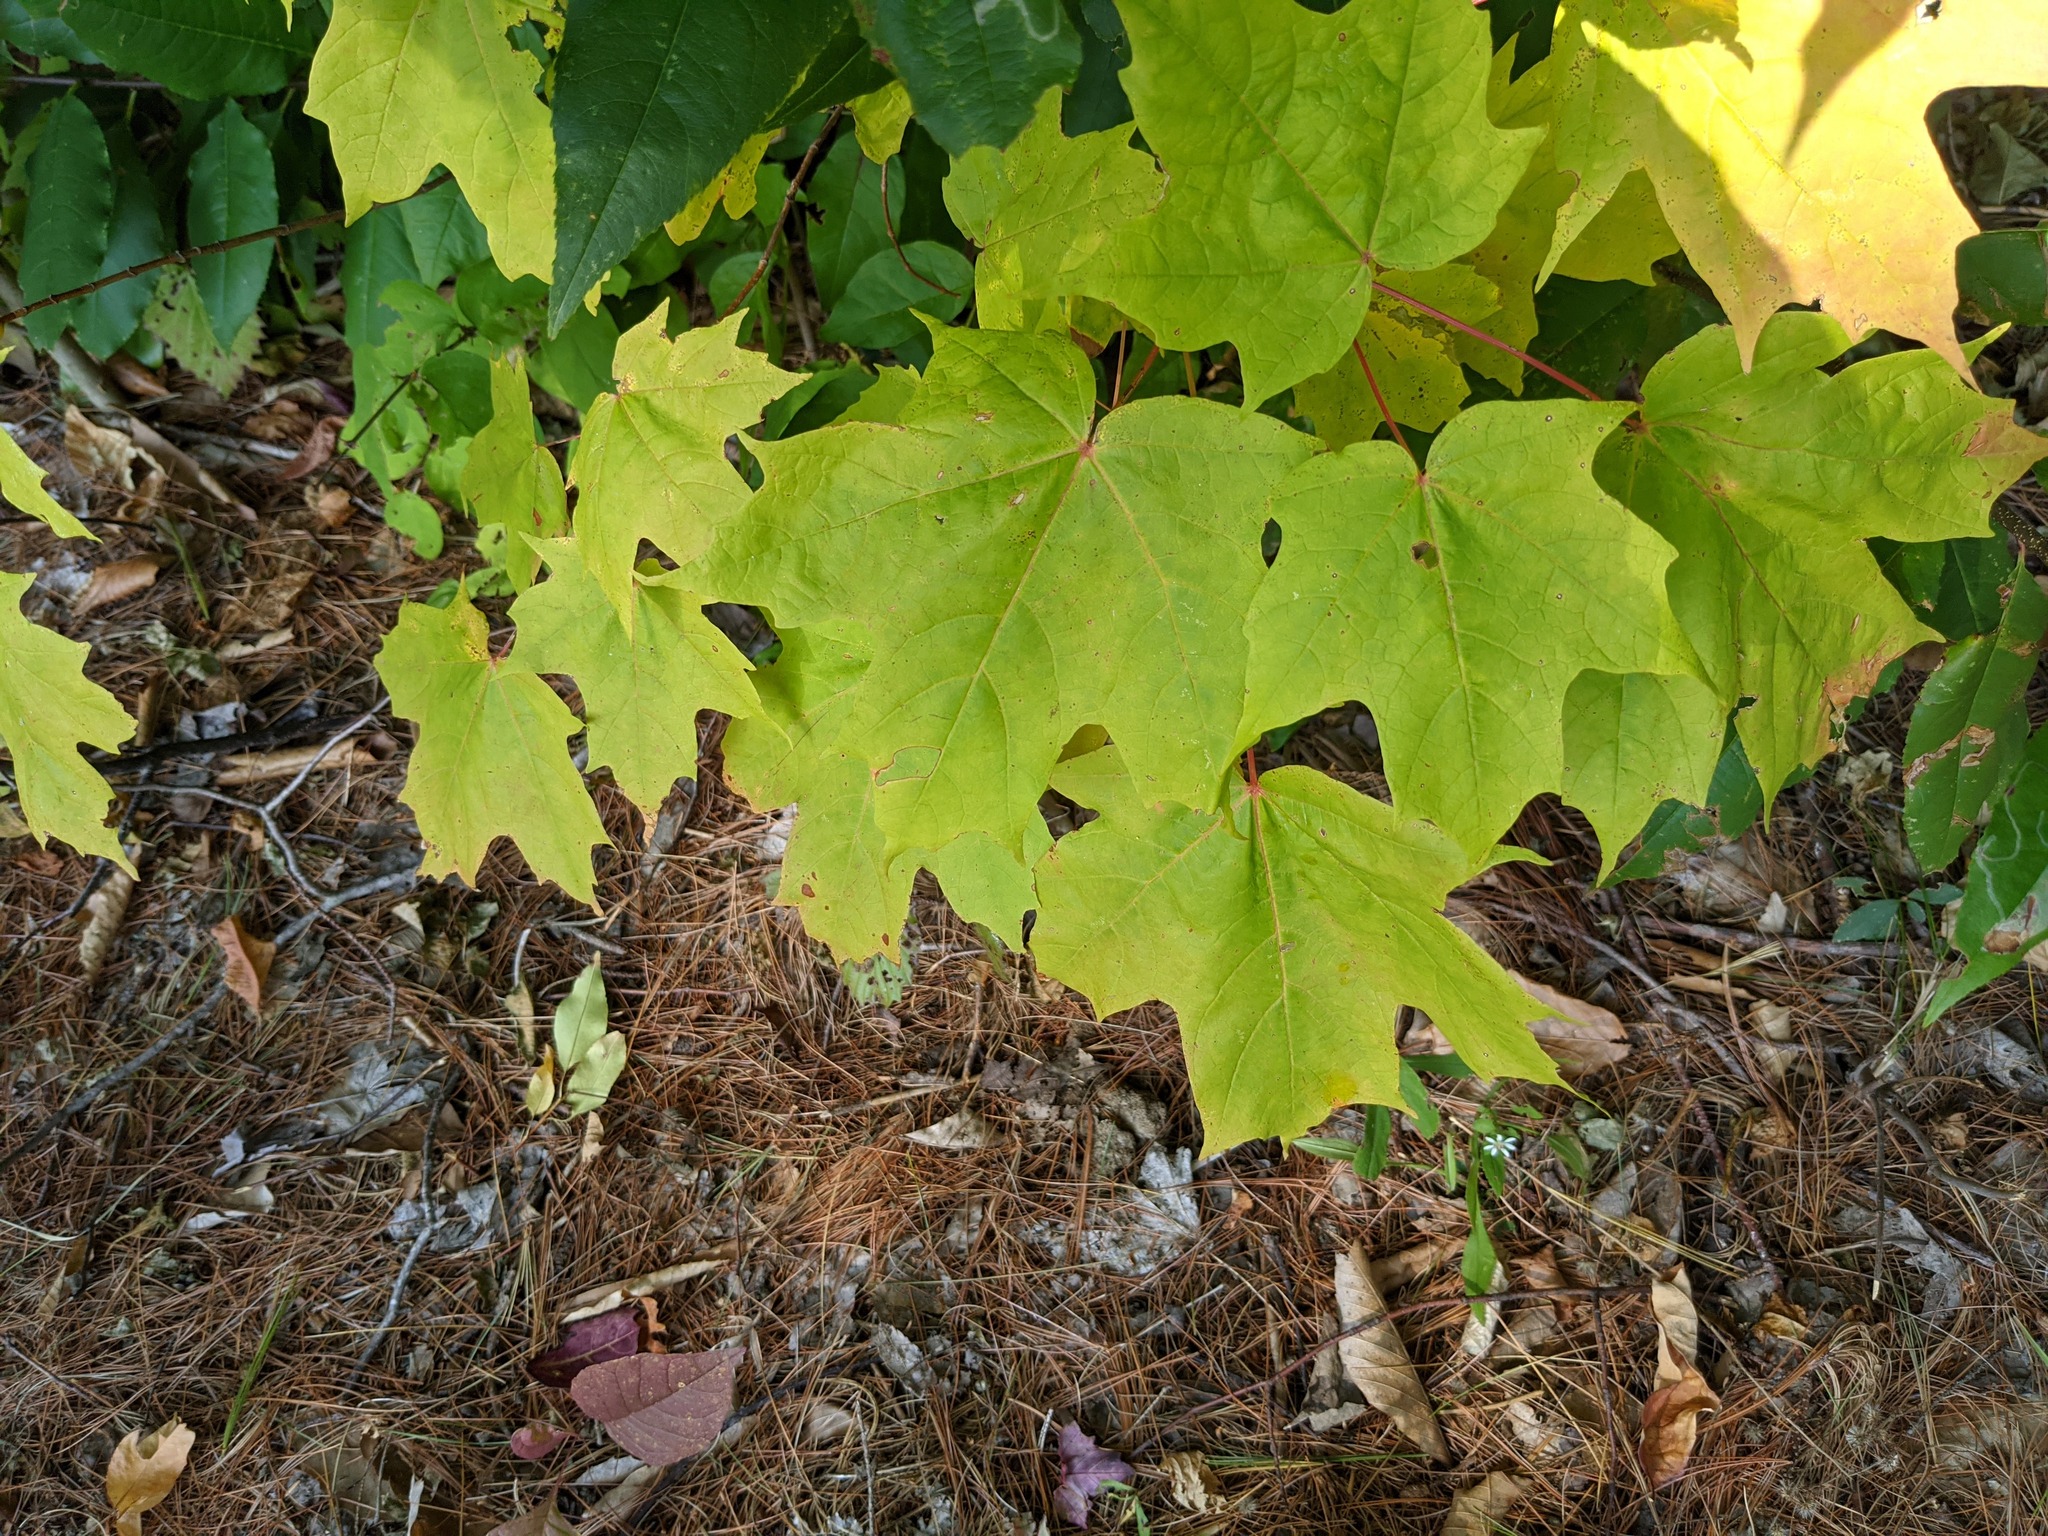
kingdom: Plantae
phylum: Tracheophyta
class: Magnoliopsida
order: Sapindales
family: Sapindaceae
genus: Acer
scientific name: Acer saccharum
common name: Sugar maple
